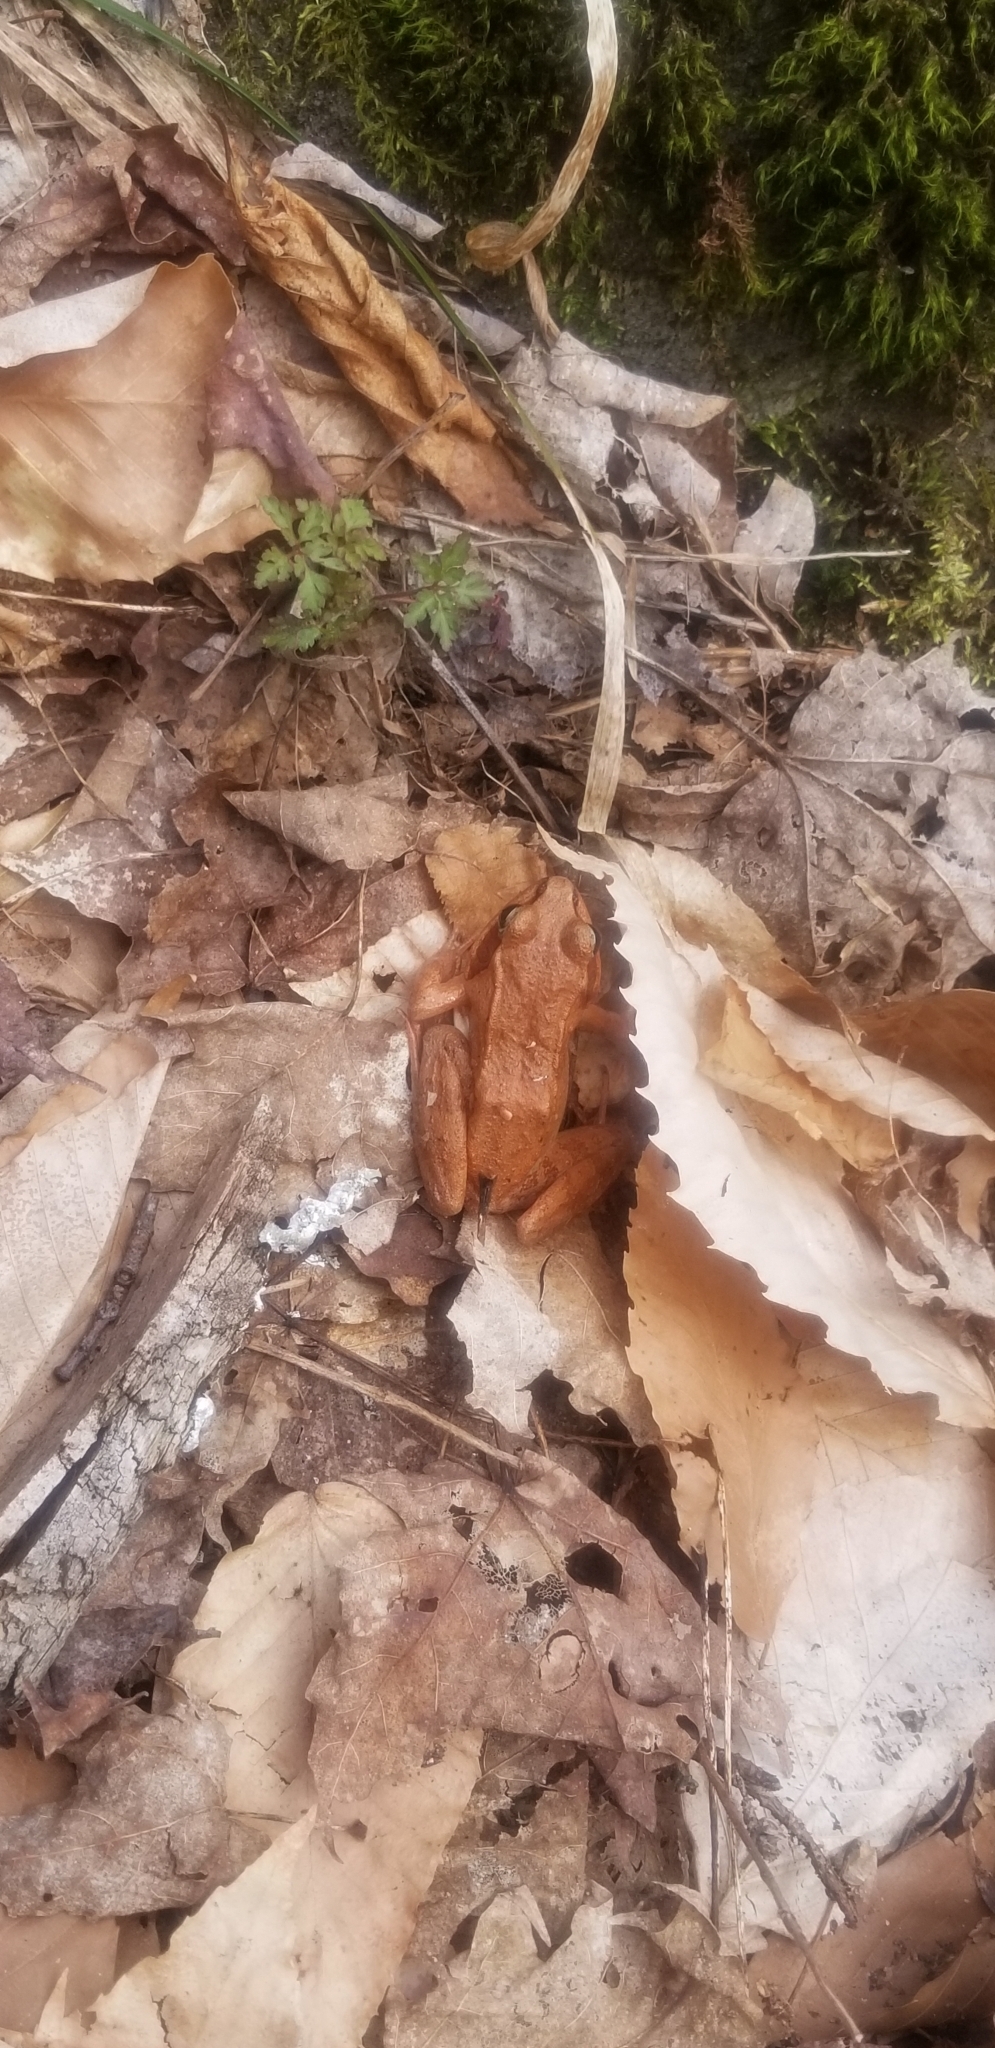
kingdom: Animalia
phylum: Chordata
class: Amphibia
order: Anura
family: Ranidae
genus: Lithobates
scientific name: Lithobates sylvaticus
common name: Wood frog
